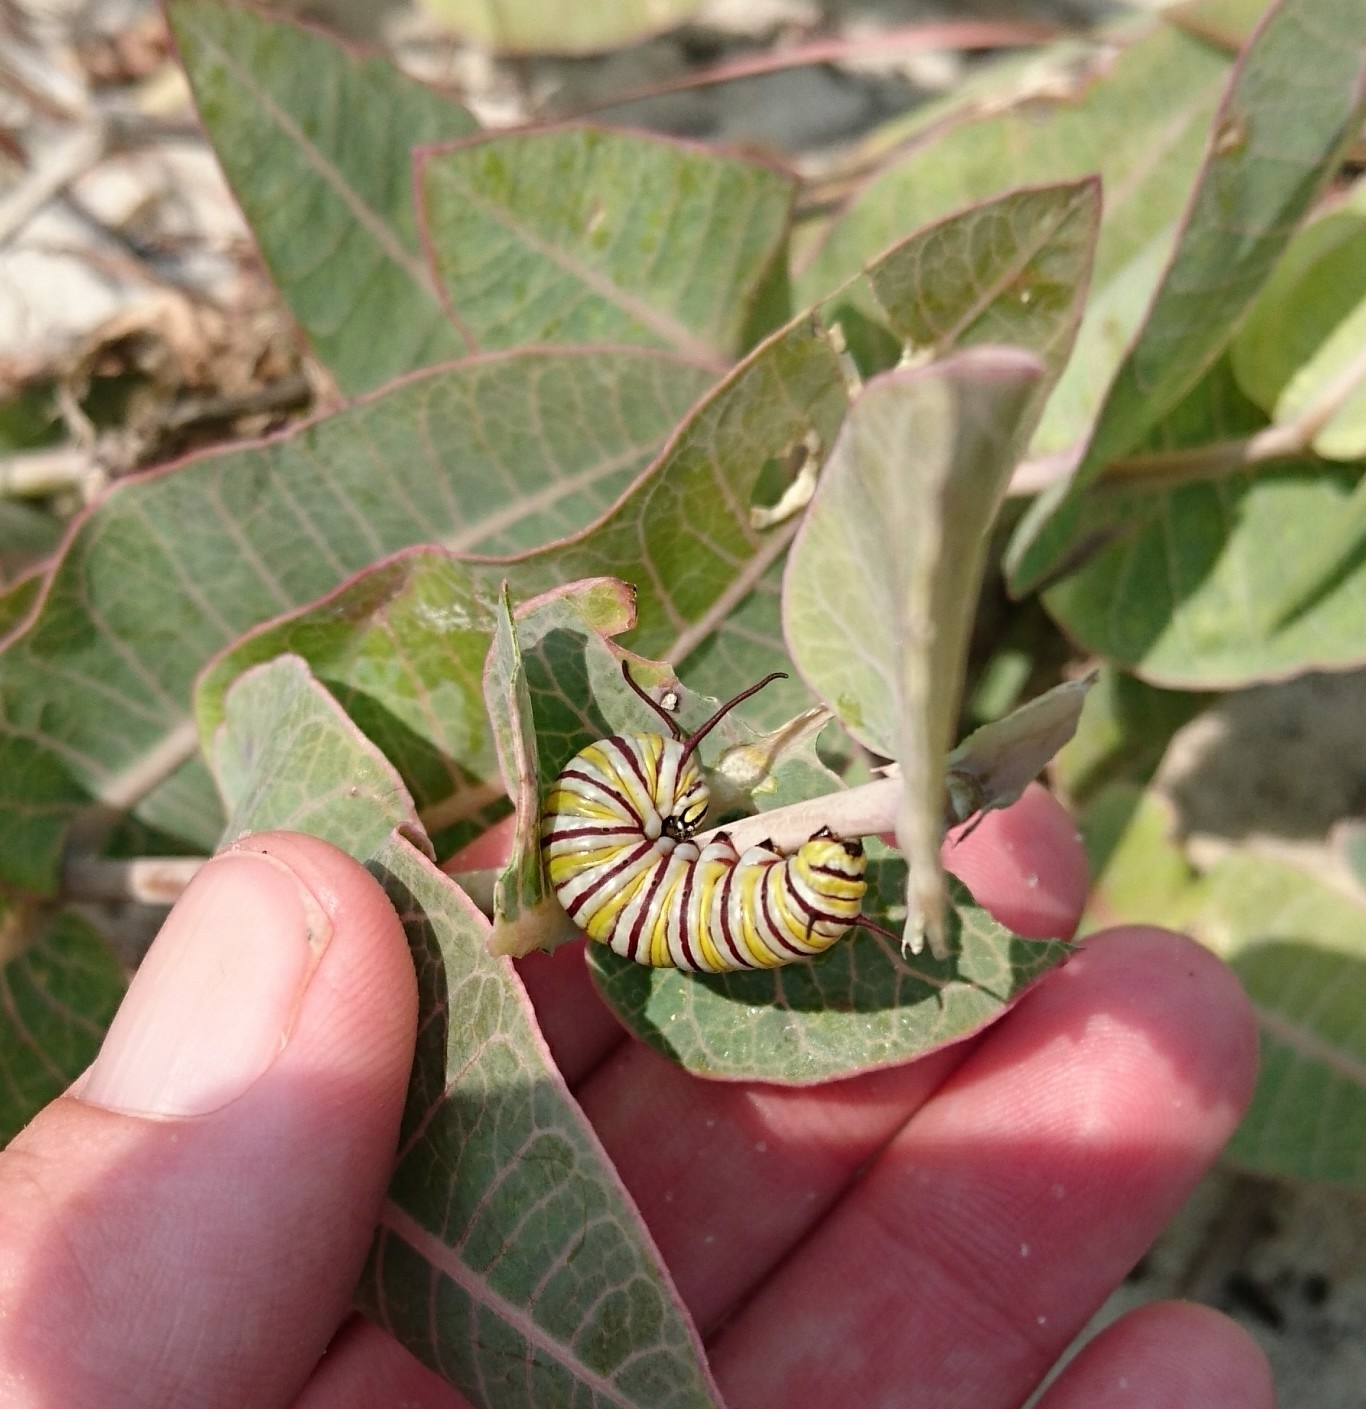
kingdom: Animalia
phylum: Arthropoda
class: Insecta
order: Lepidoptera
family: Nymphalidae
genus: Danaus
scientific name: Danaus plexippus
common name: Monarch
